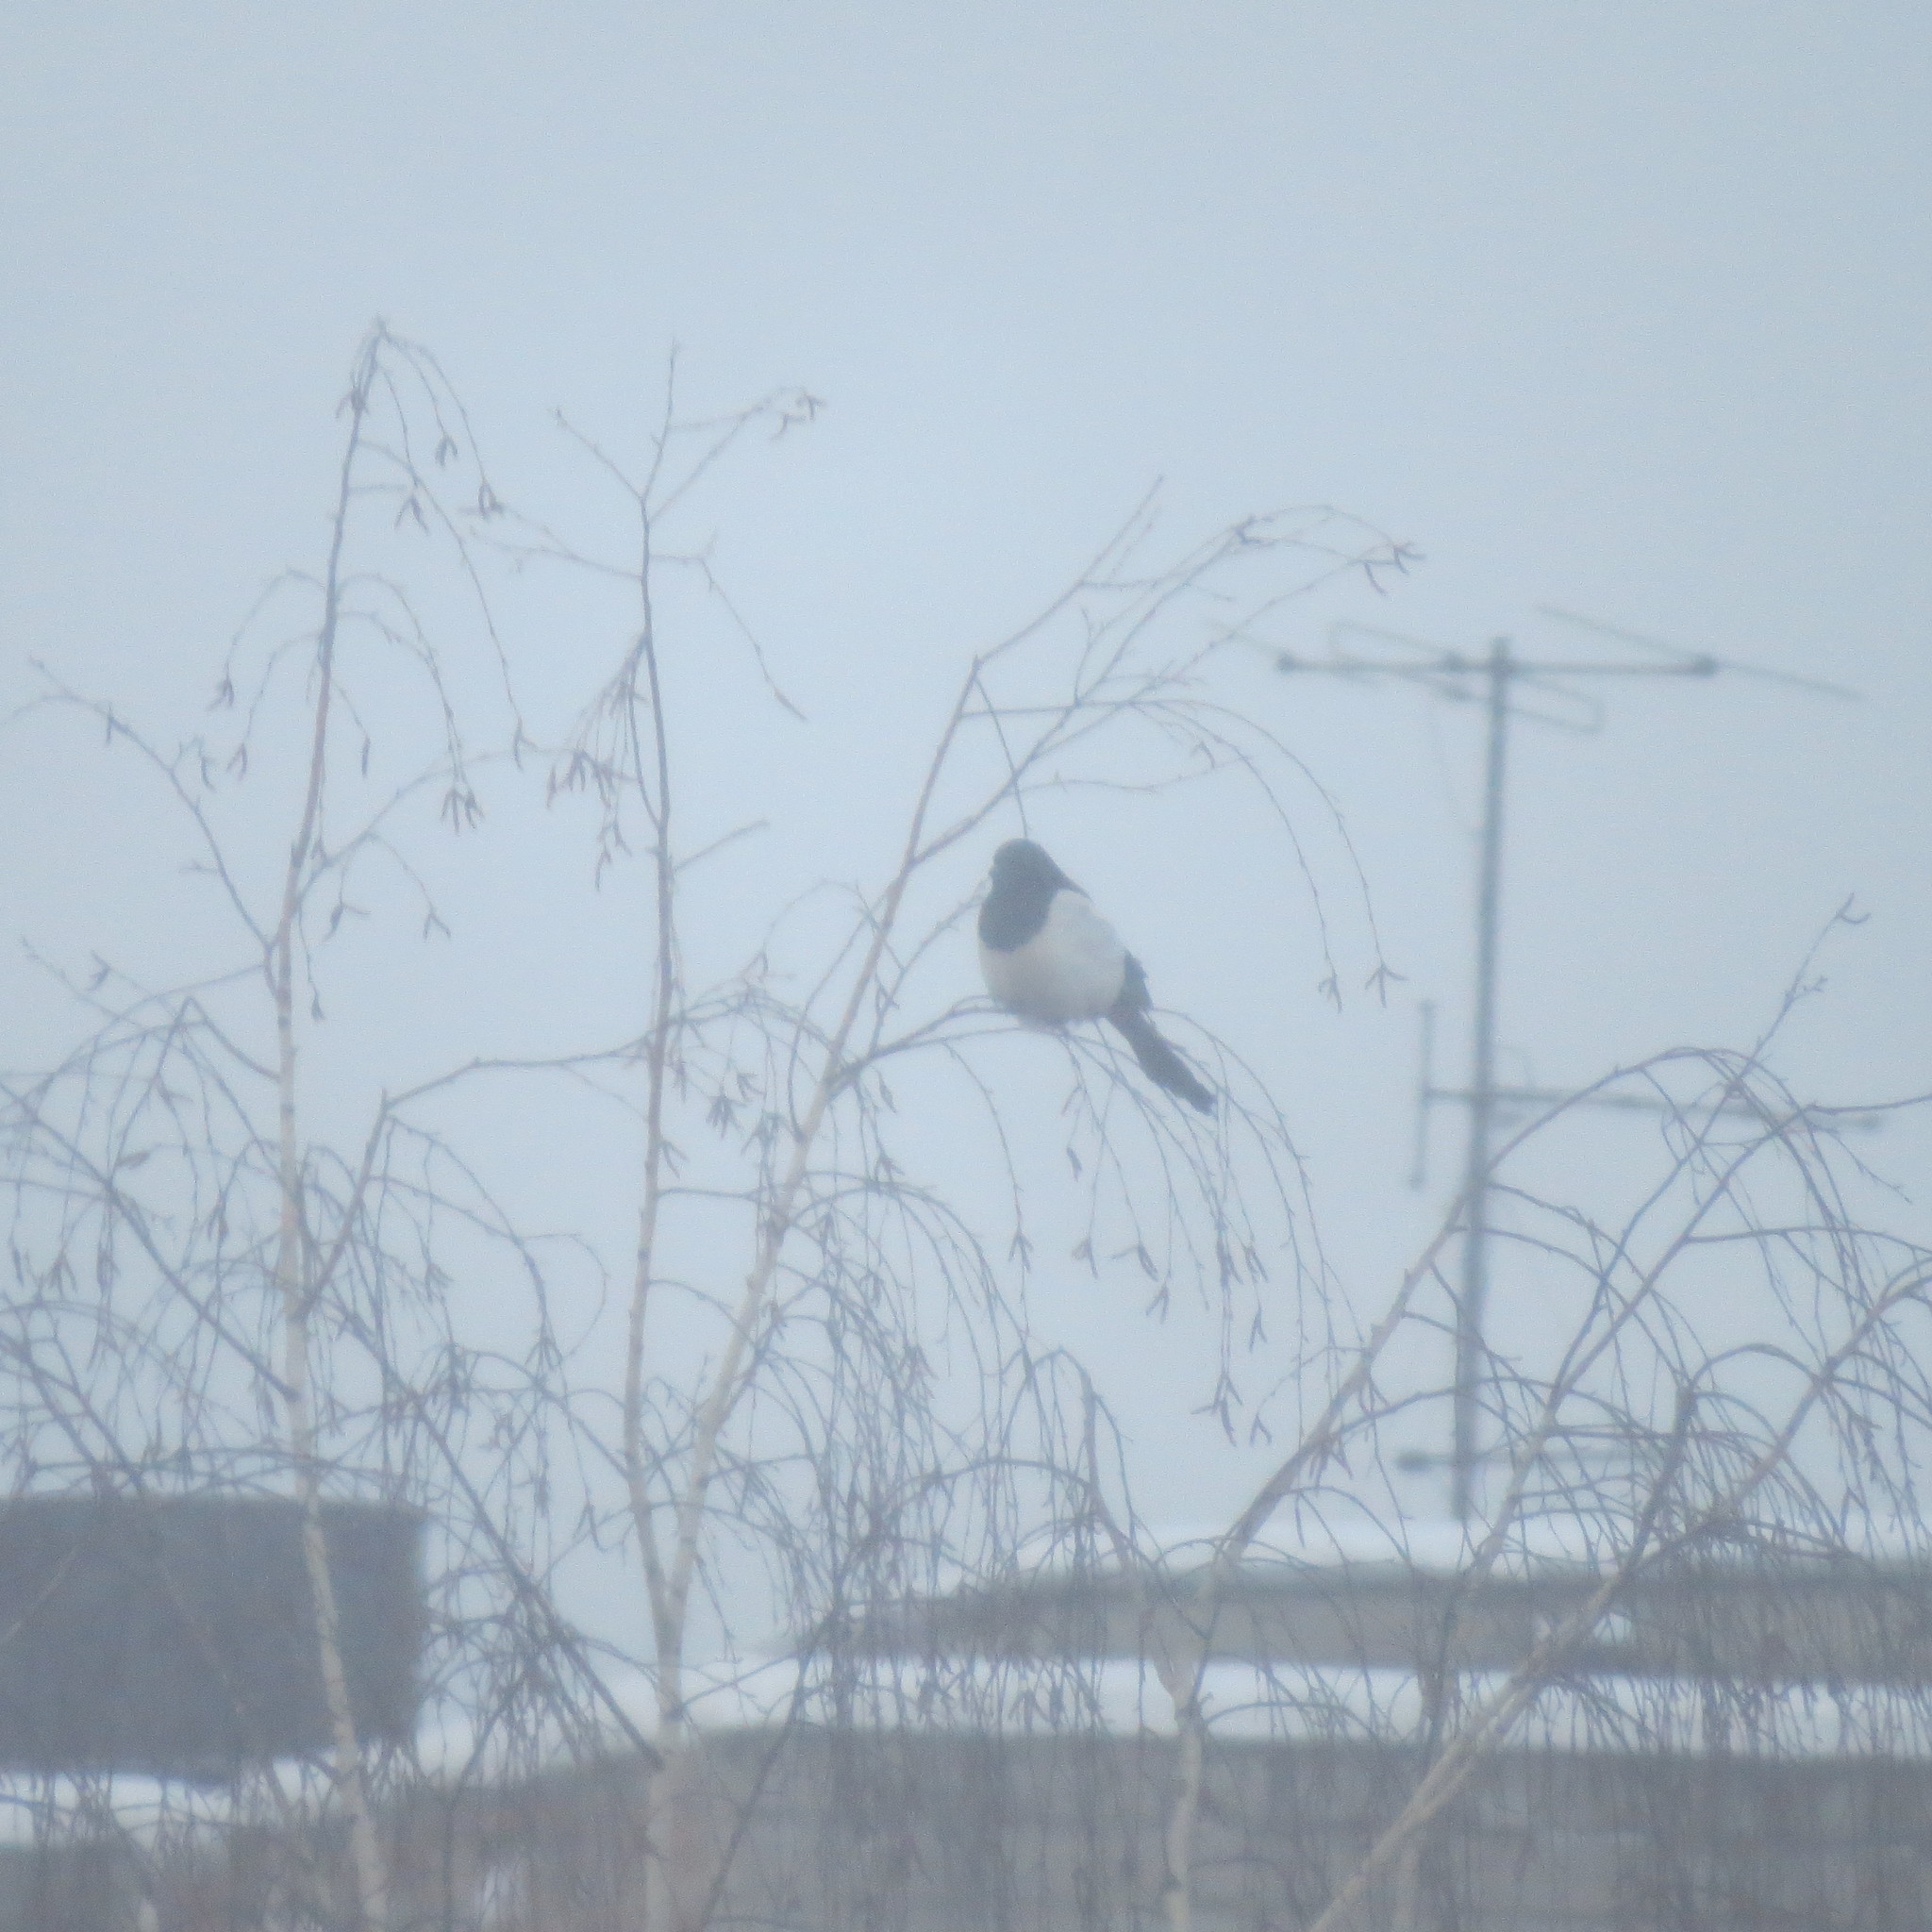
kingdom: Animalia
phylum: Chordata
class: Aves
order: Passeriformes
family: Corvidae
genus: Pica
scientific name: Pica pica
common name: Eurasian magpie
